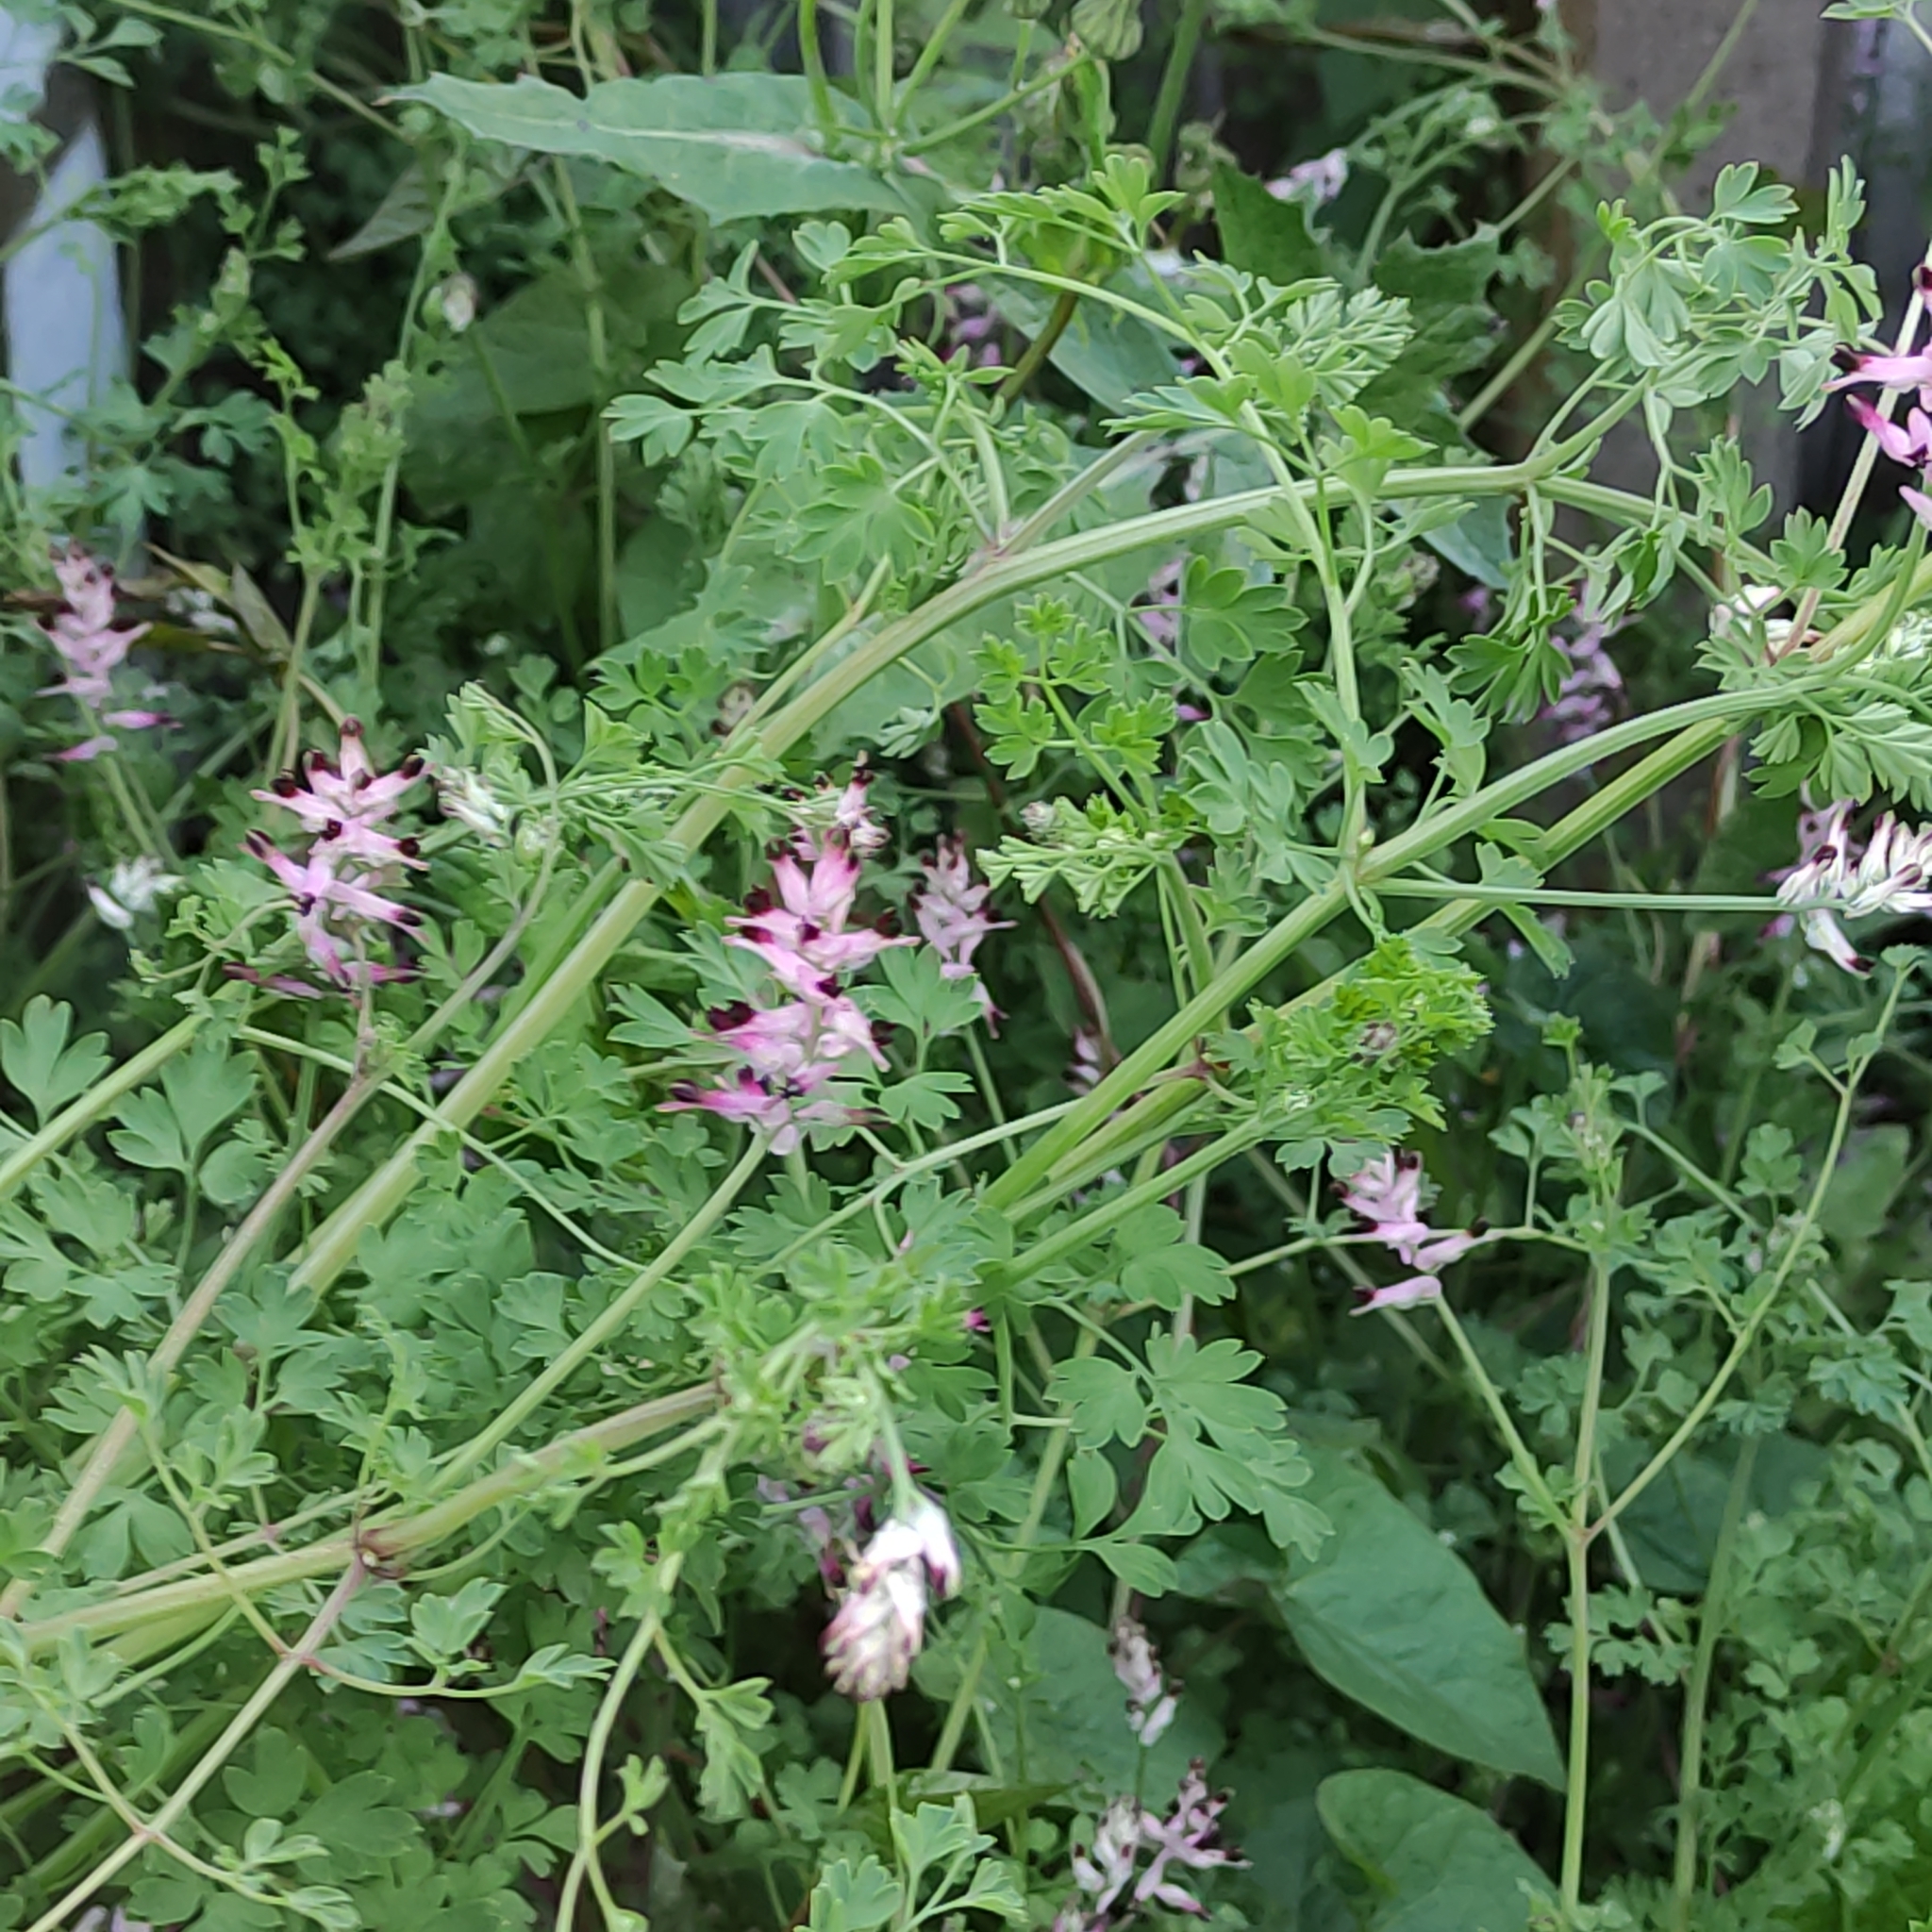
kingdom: Plantae
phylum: Tracheophyta
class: Magnoliopsida
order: Ranunculales
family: Papaveraceae
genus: Fumaria
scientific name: Fumaria muralis
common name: Common ramping-fumitory
